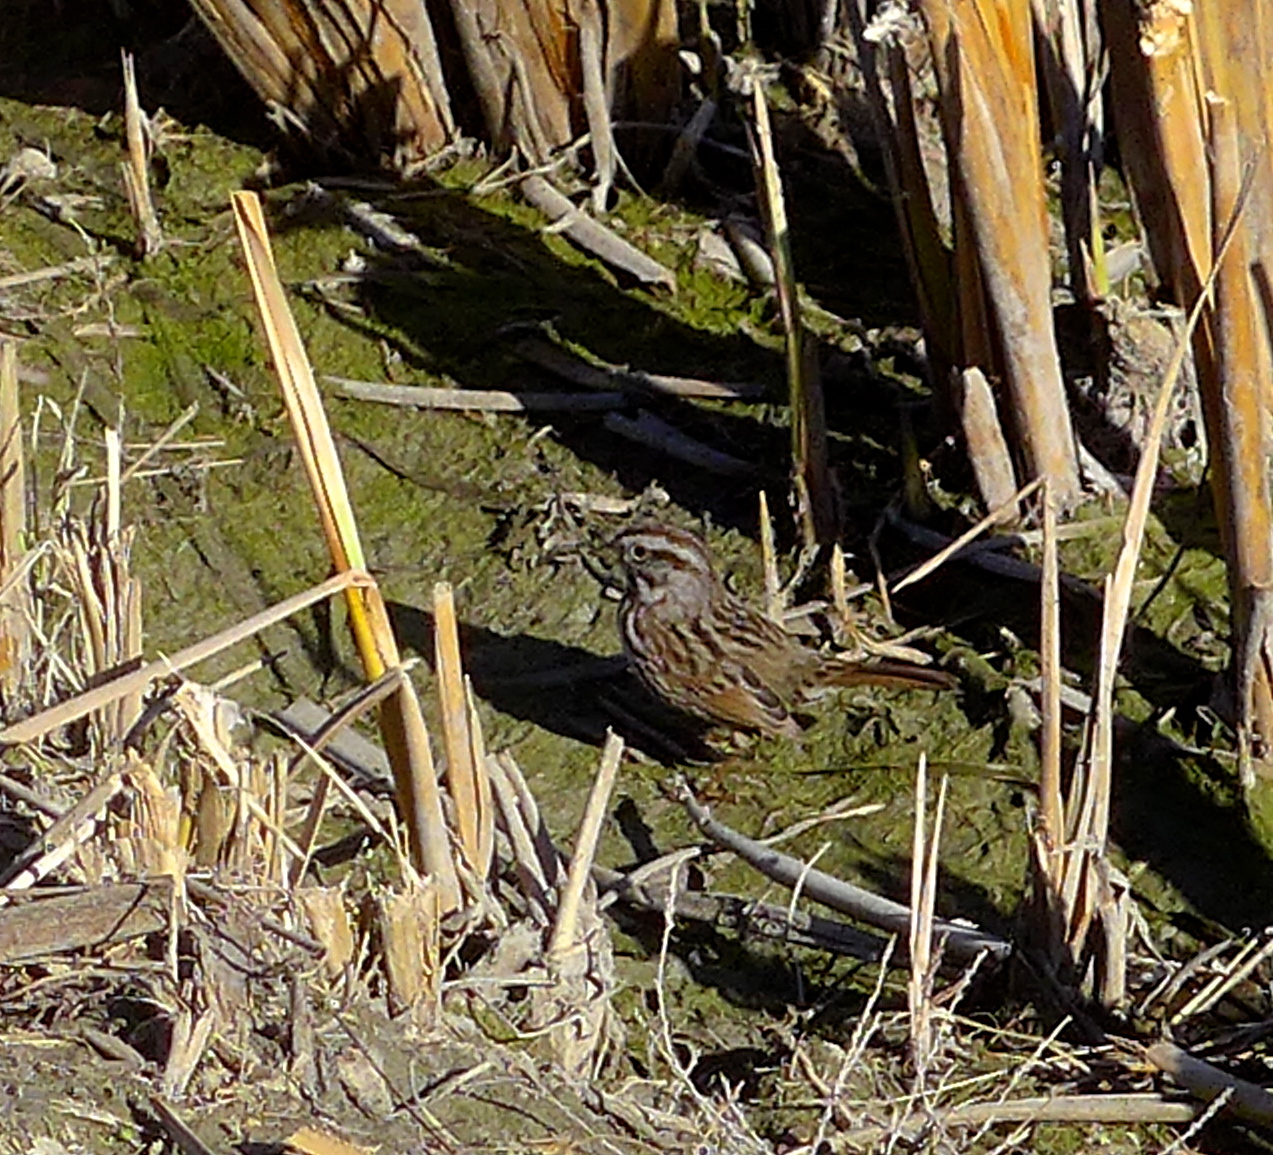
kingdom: Animalia
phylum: Chordata
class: Aves
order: Passeriformes
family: Passerellidae
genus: Melospiza
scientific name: Melospiza melodia
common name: Song sparrow
